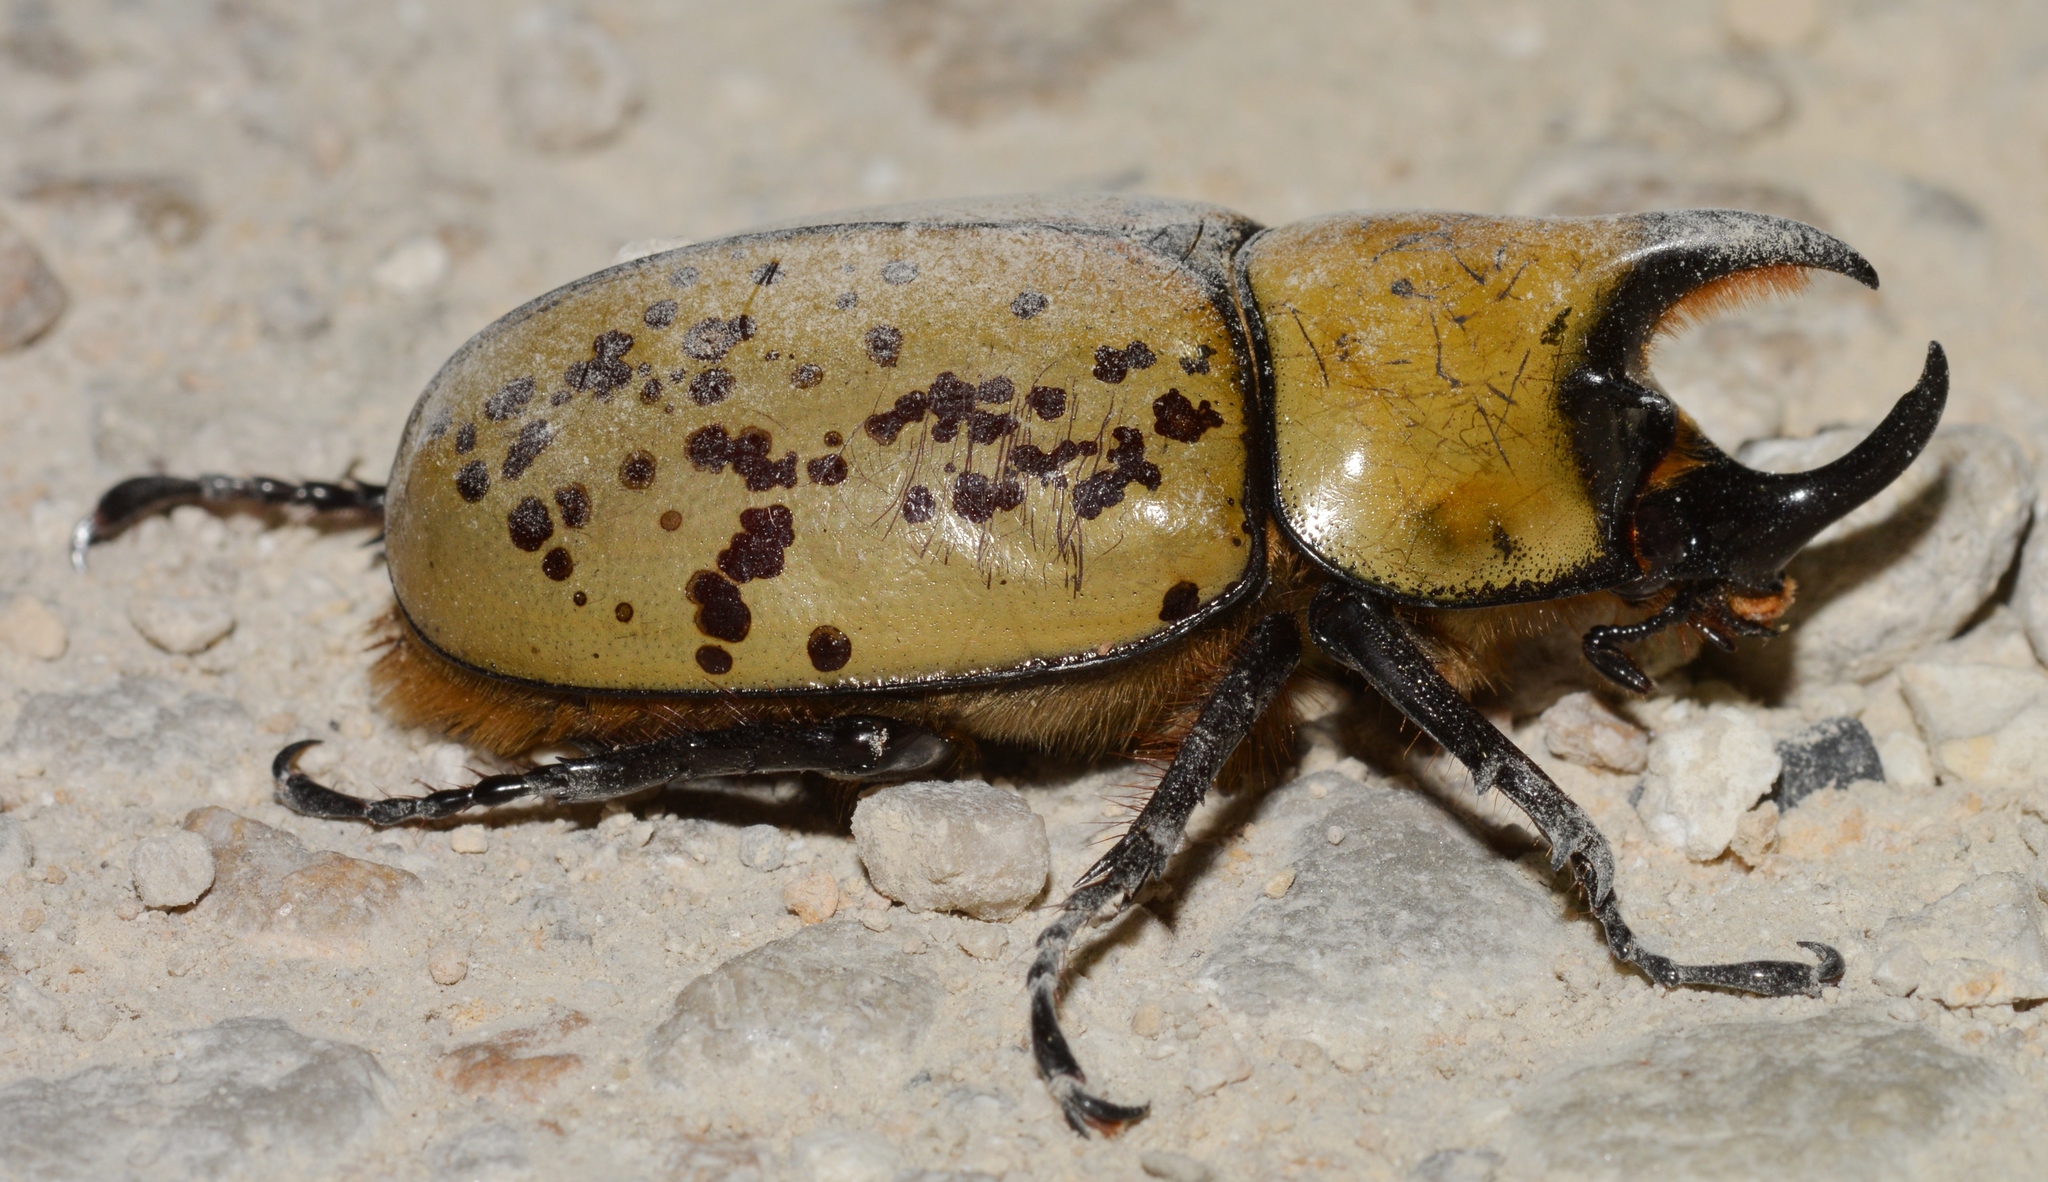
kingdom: Animalia
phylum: Arthropoda
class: Insecta
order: Coleoptera
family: Scarabaeidae
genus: Dynastes
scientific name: Dynastes tityus
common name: Eastern hercules beetle
